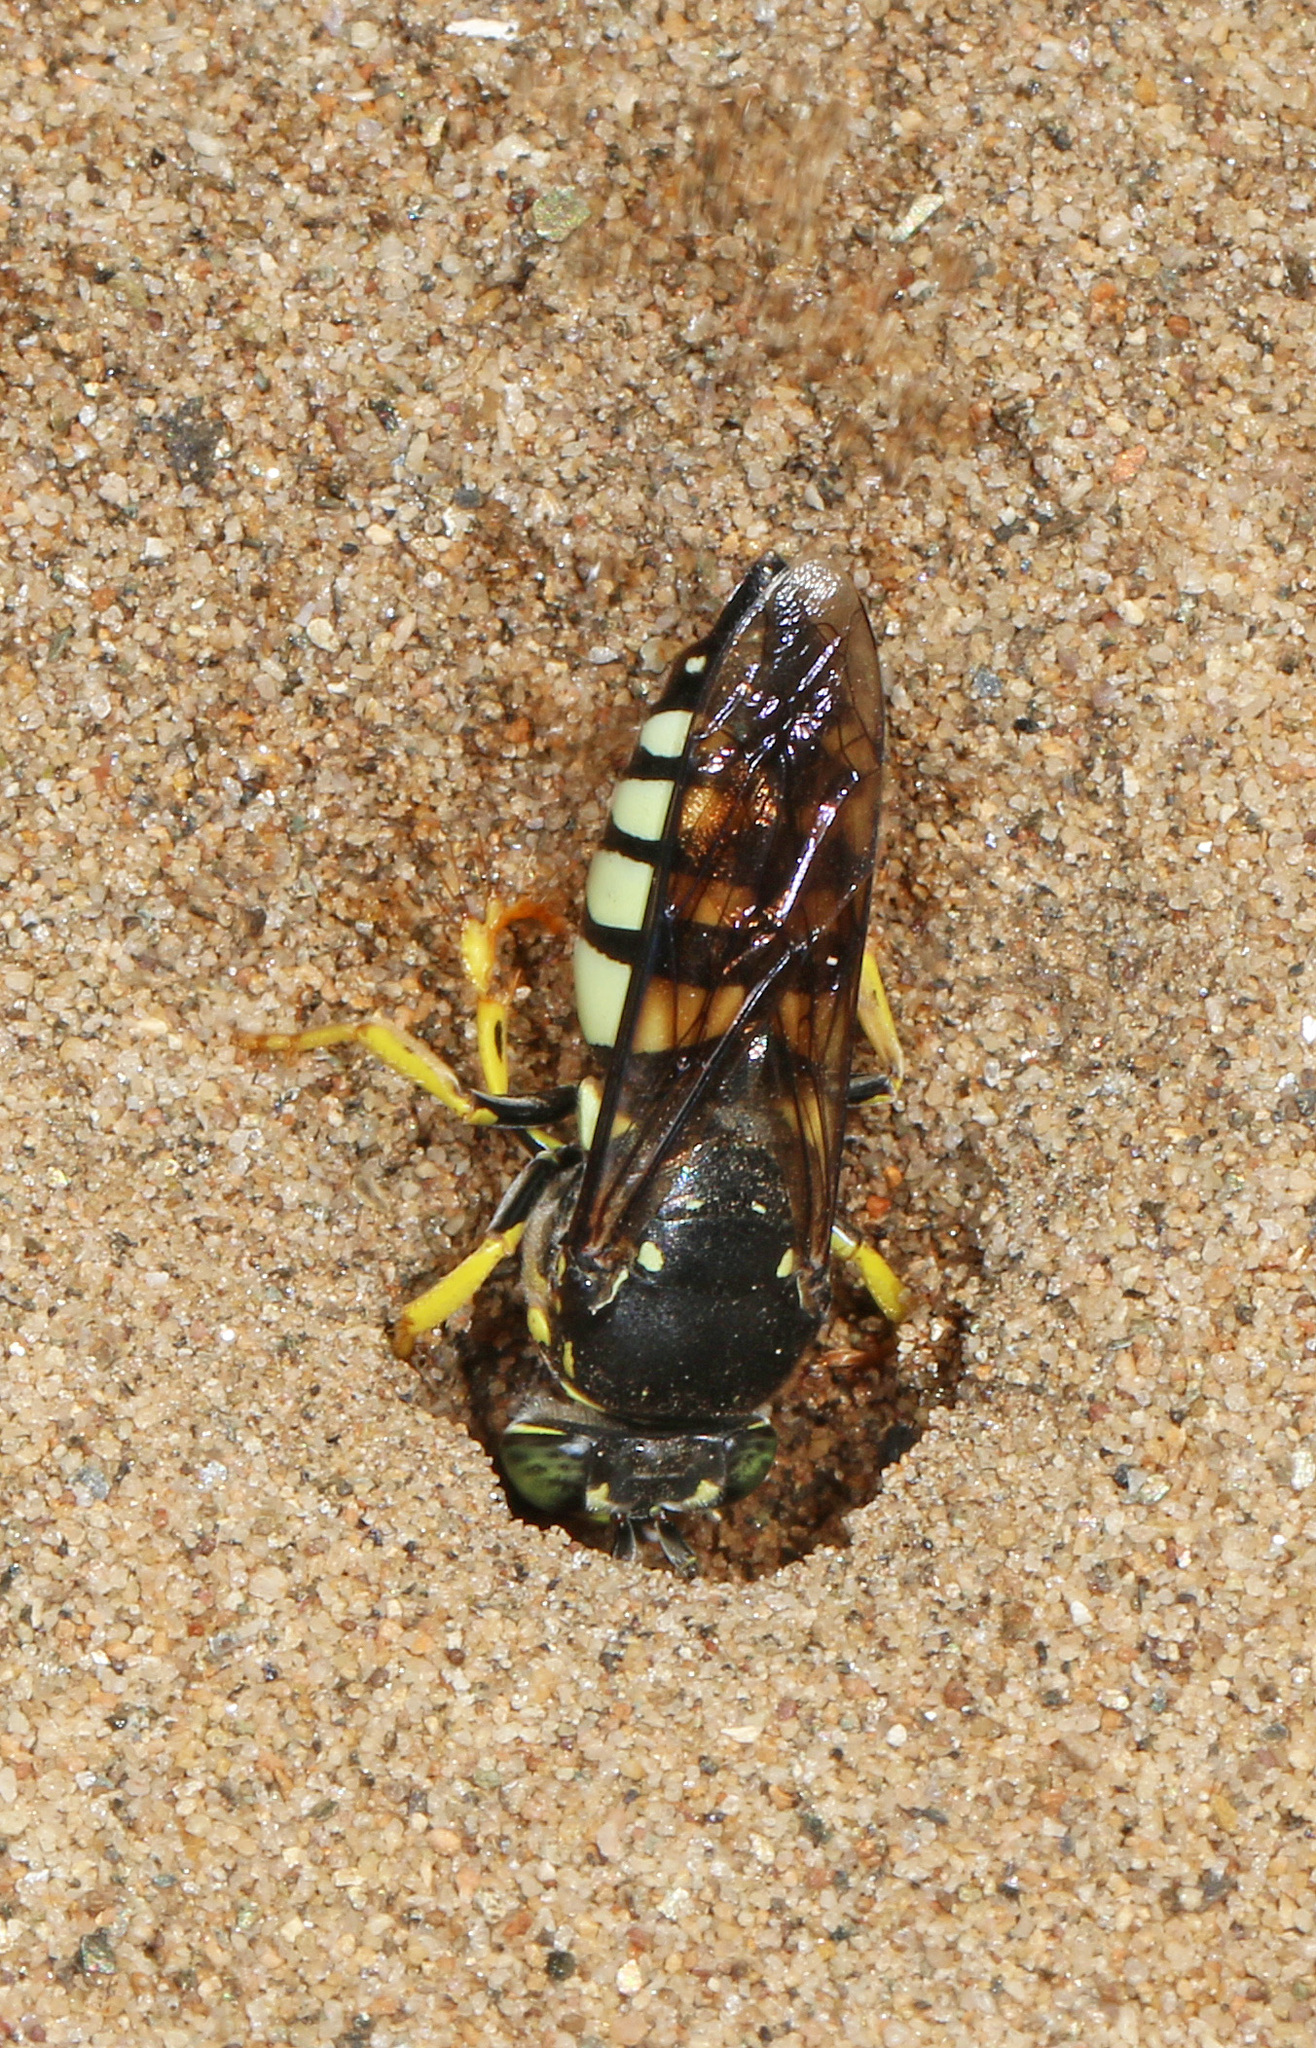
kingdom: Animalia
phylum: Arthropoda
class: Insecta
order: Hymenoptera
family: Crabronidae
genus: Bicyrtes
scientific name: Bicyrtes quadrifasciatus
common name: Four-banded stink bug hunter wasp
